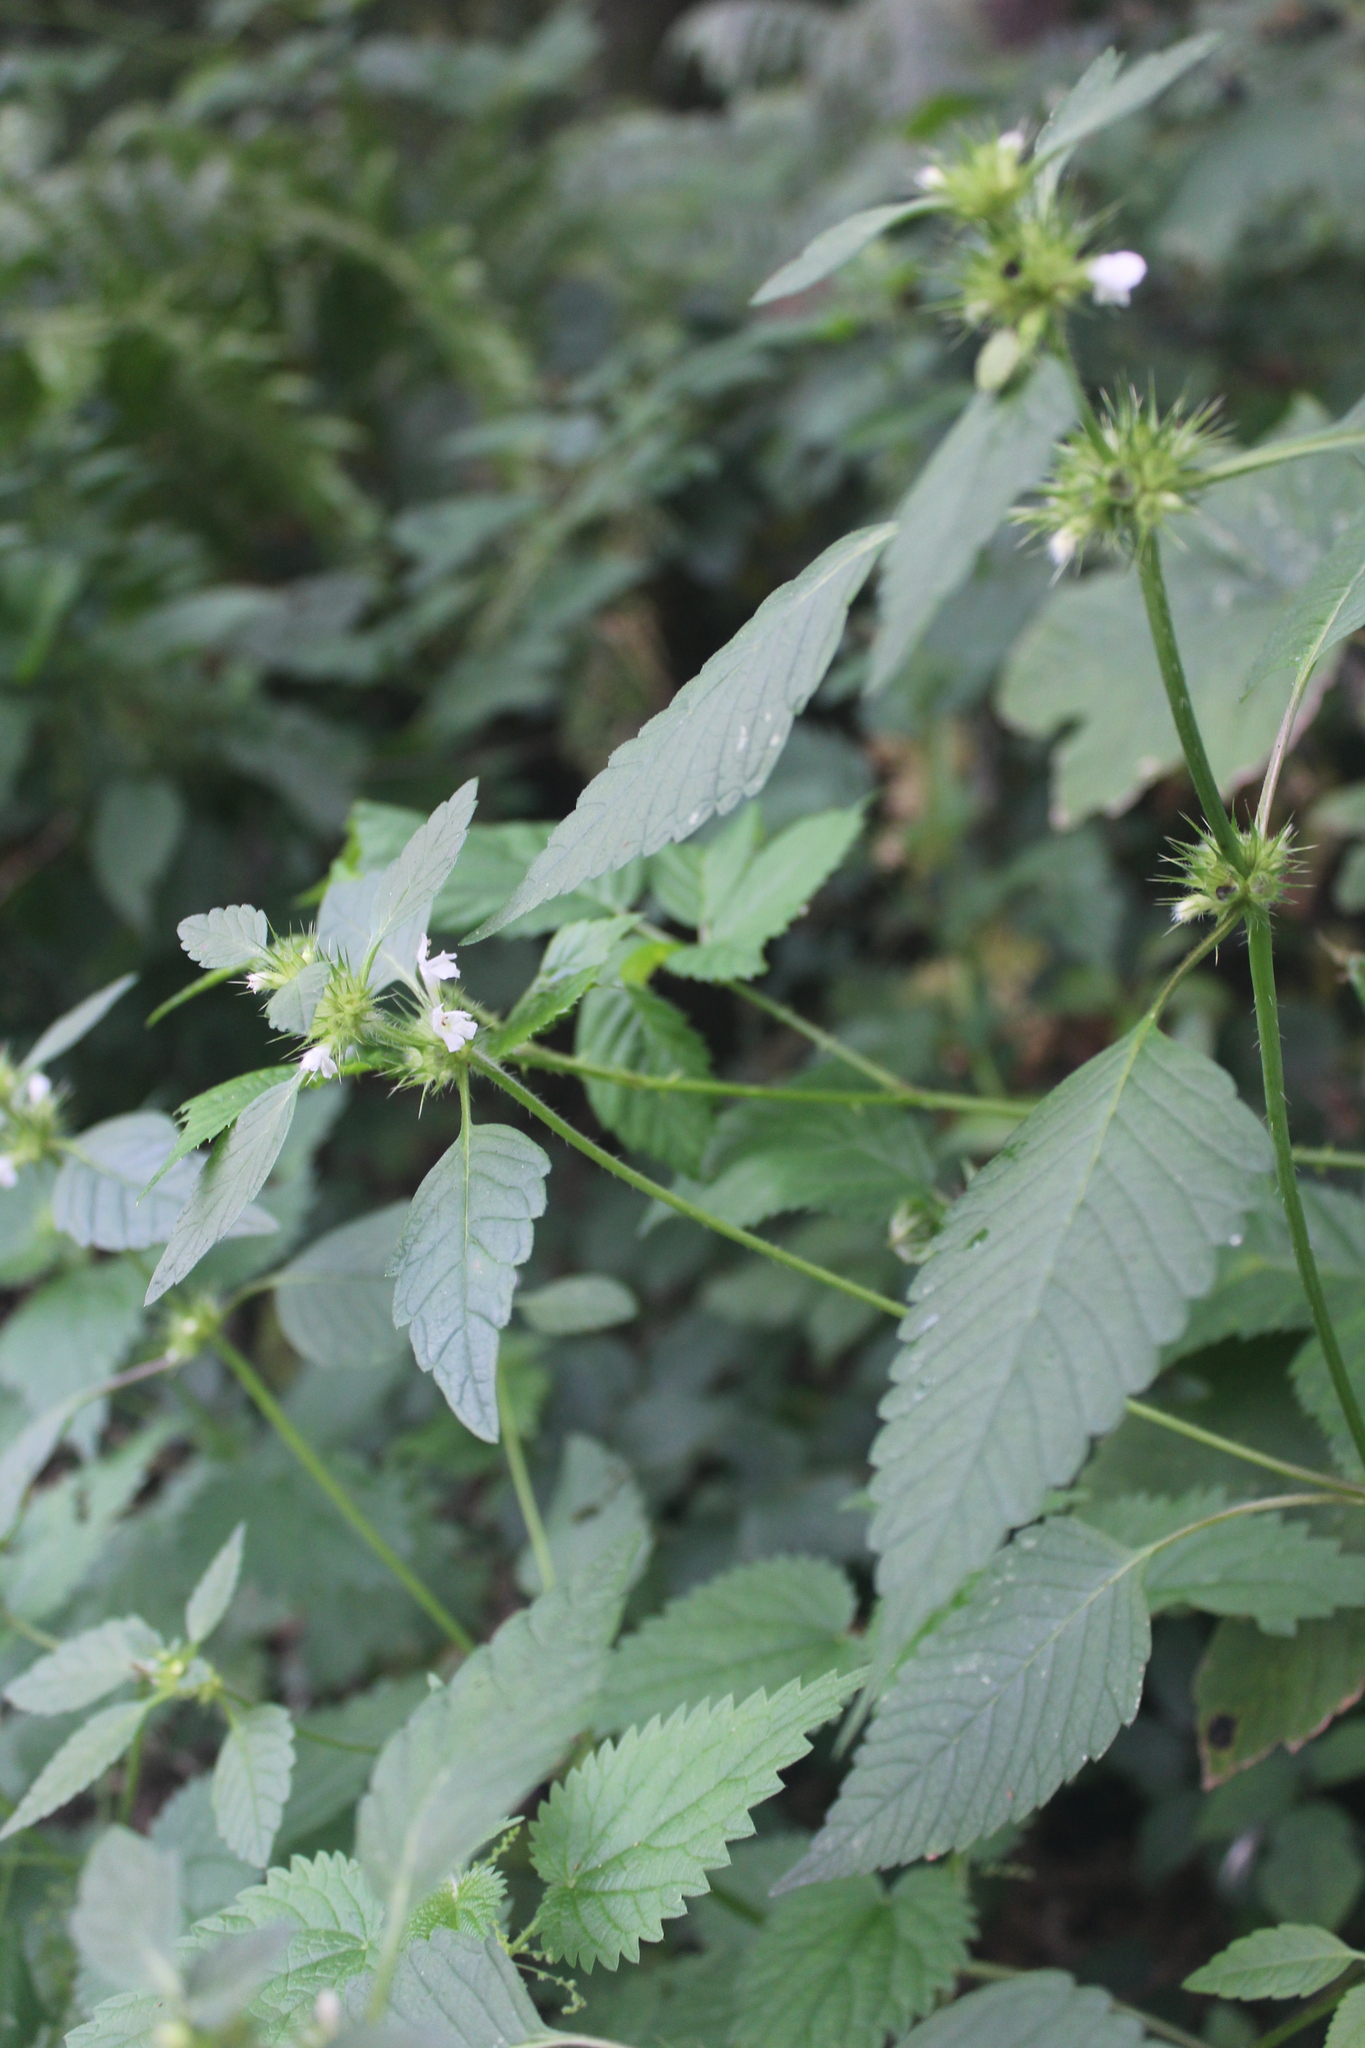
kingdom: Plantae
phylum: Tracheophyta
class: Magnoliopsida
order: Lamiales
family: Lamiaceae
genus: Galeopsis
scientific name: Galeopsis tetrahit
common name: Common hemp-nettle
